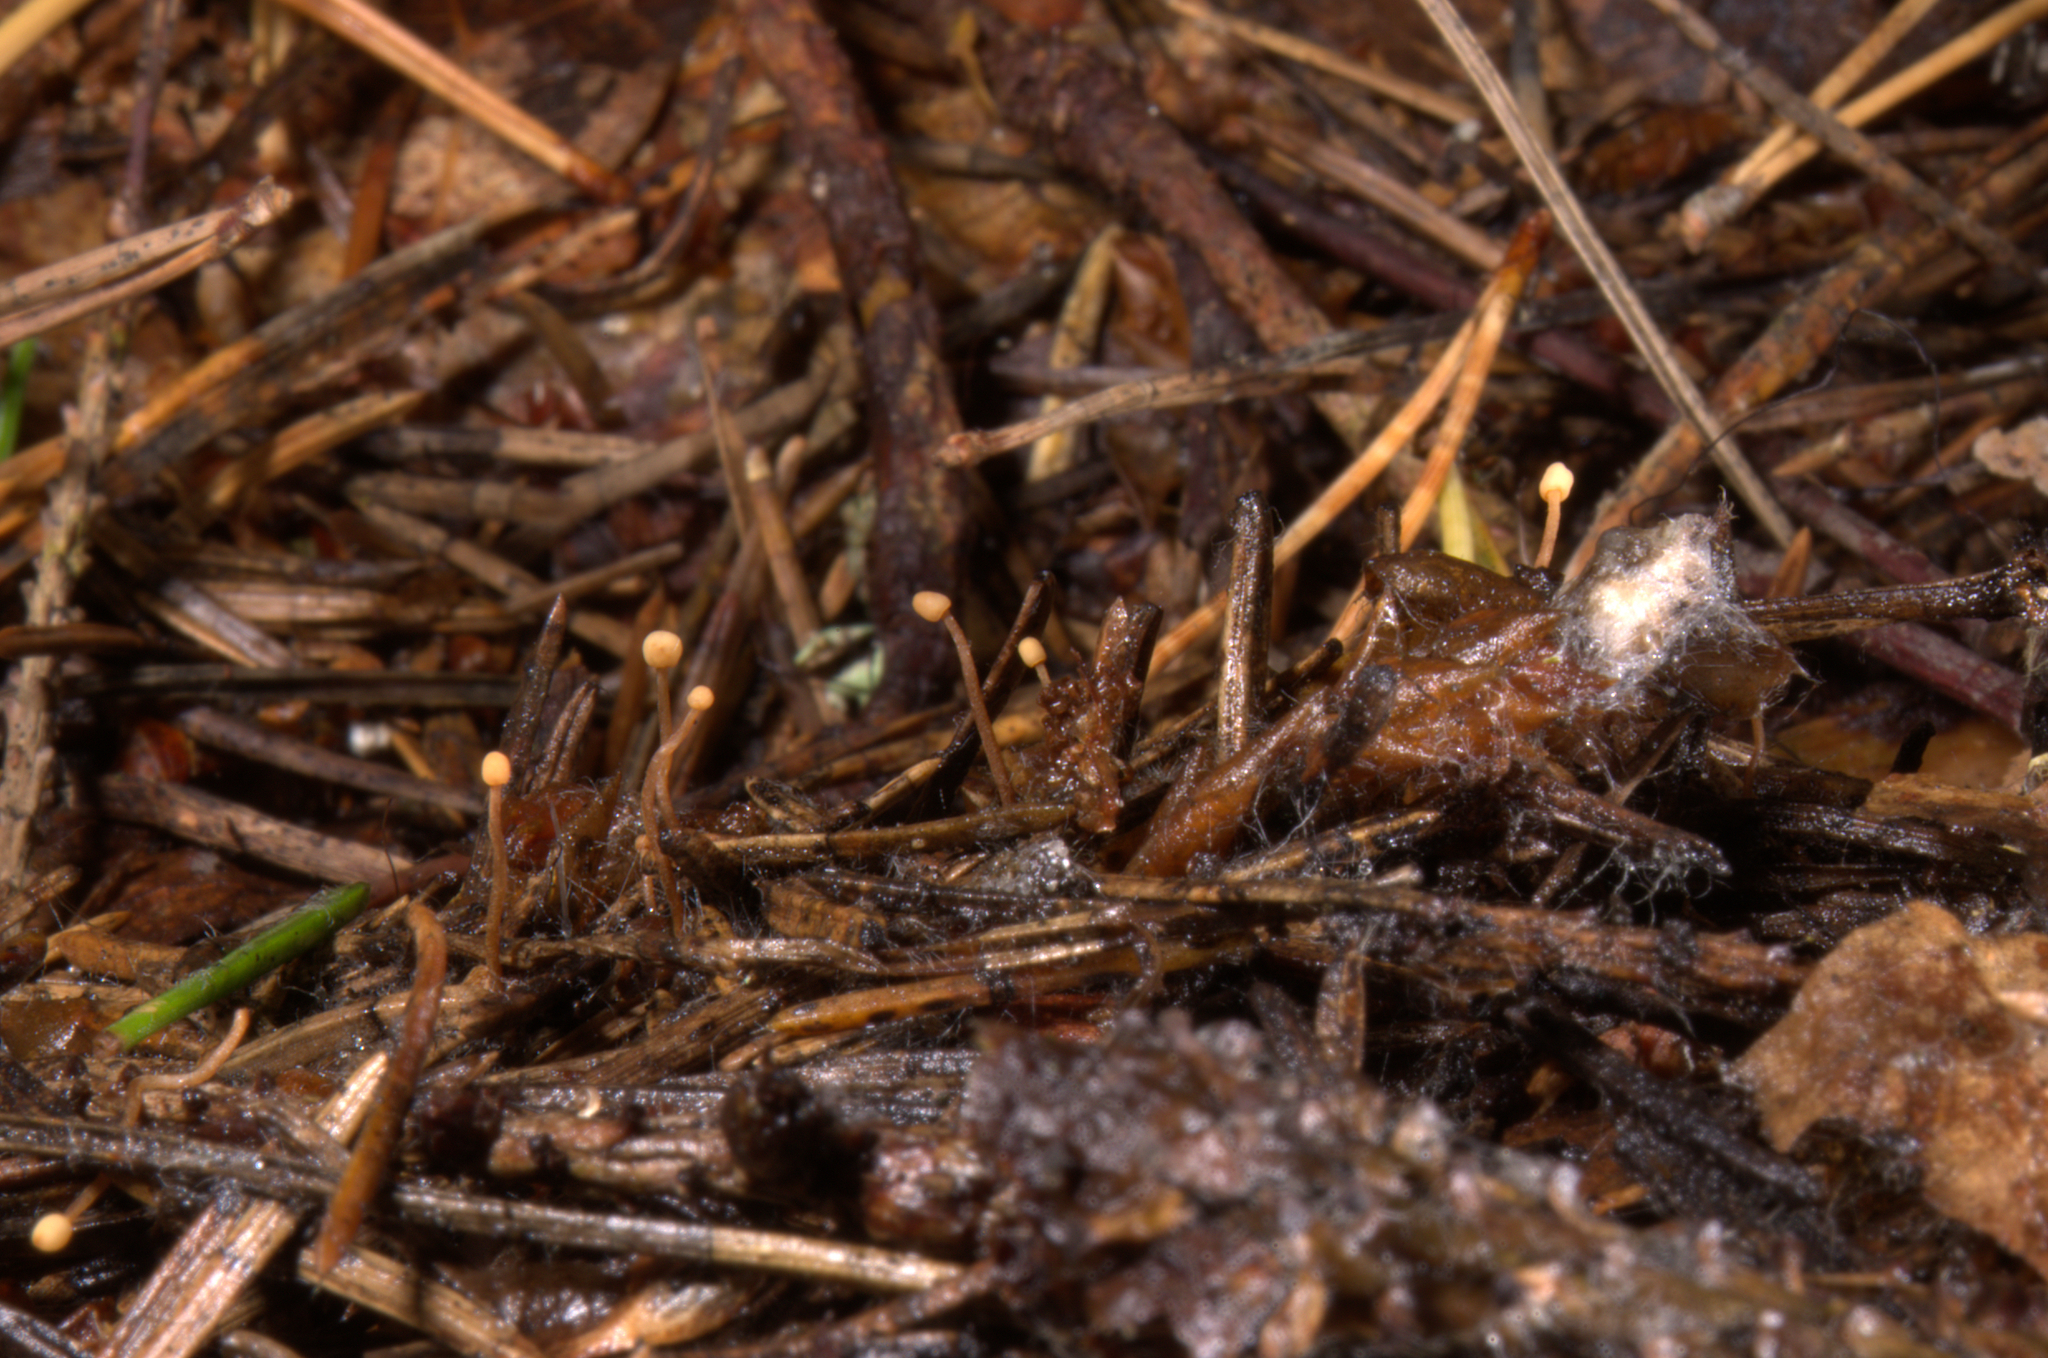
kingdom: Fungi
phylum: Ascomycota
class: Leotiomycetes
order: Helotiales
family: Cenangiaceae
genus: Heyderia
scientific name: Heyderia cucullata
